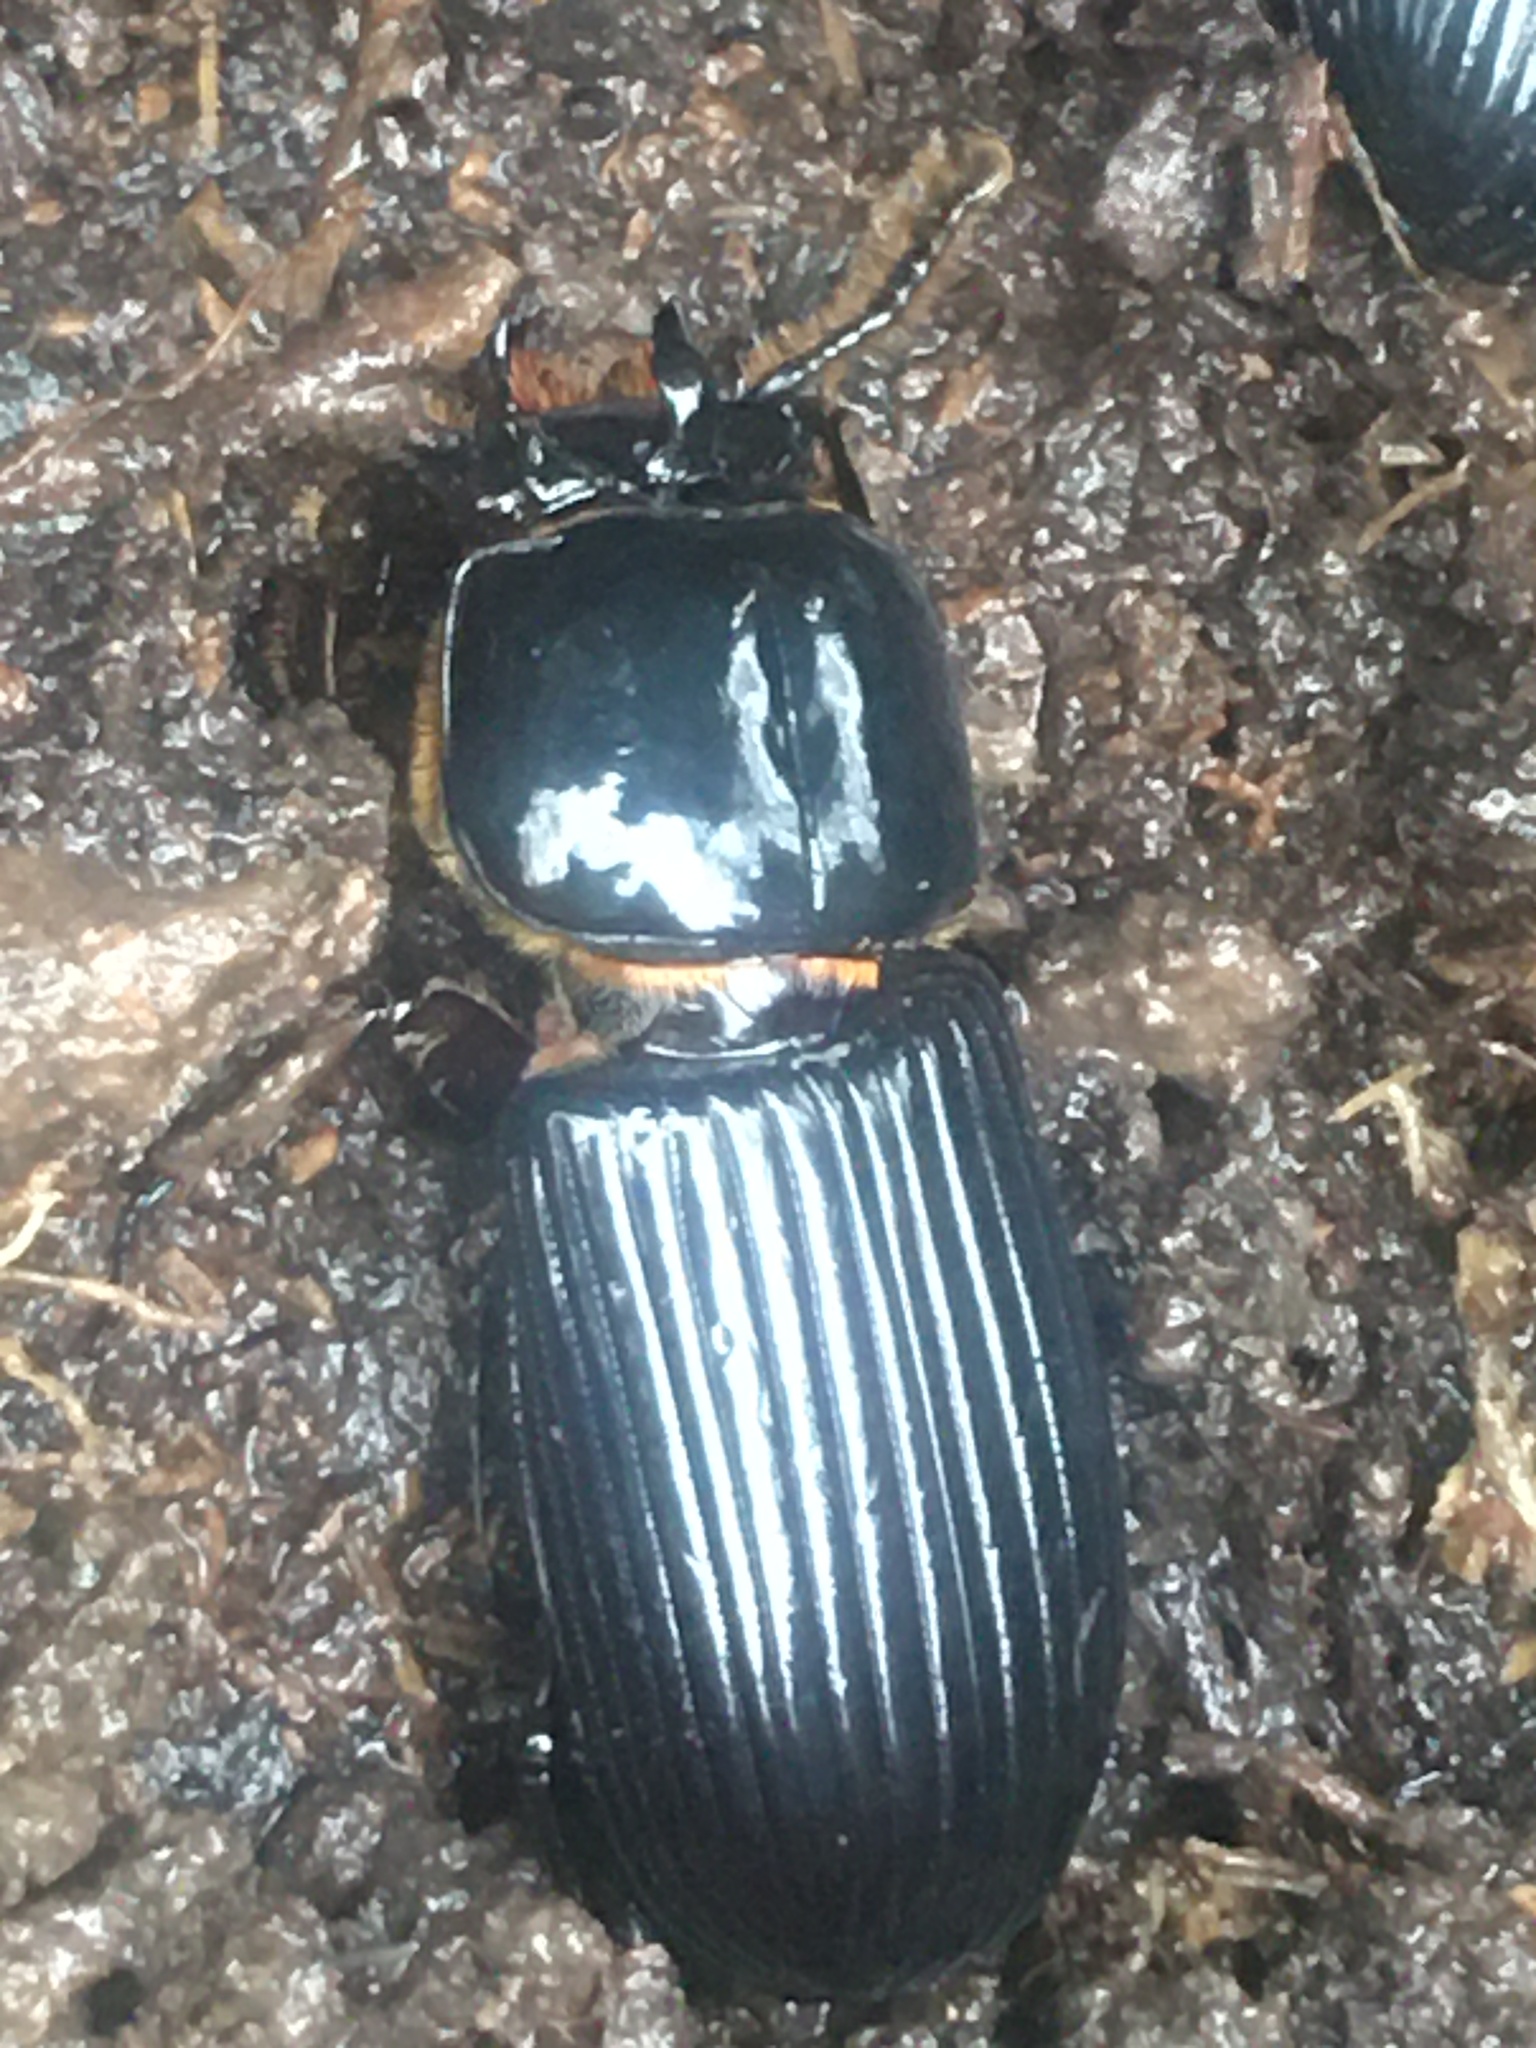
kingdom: Animalia
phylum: Arthropoda
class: Insecta
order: Coleoptera
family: Passalidae
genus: Odontotaenius
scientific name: Odontotaenius disjunctus
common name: Patent leather beetle
